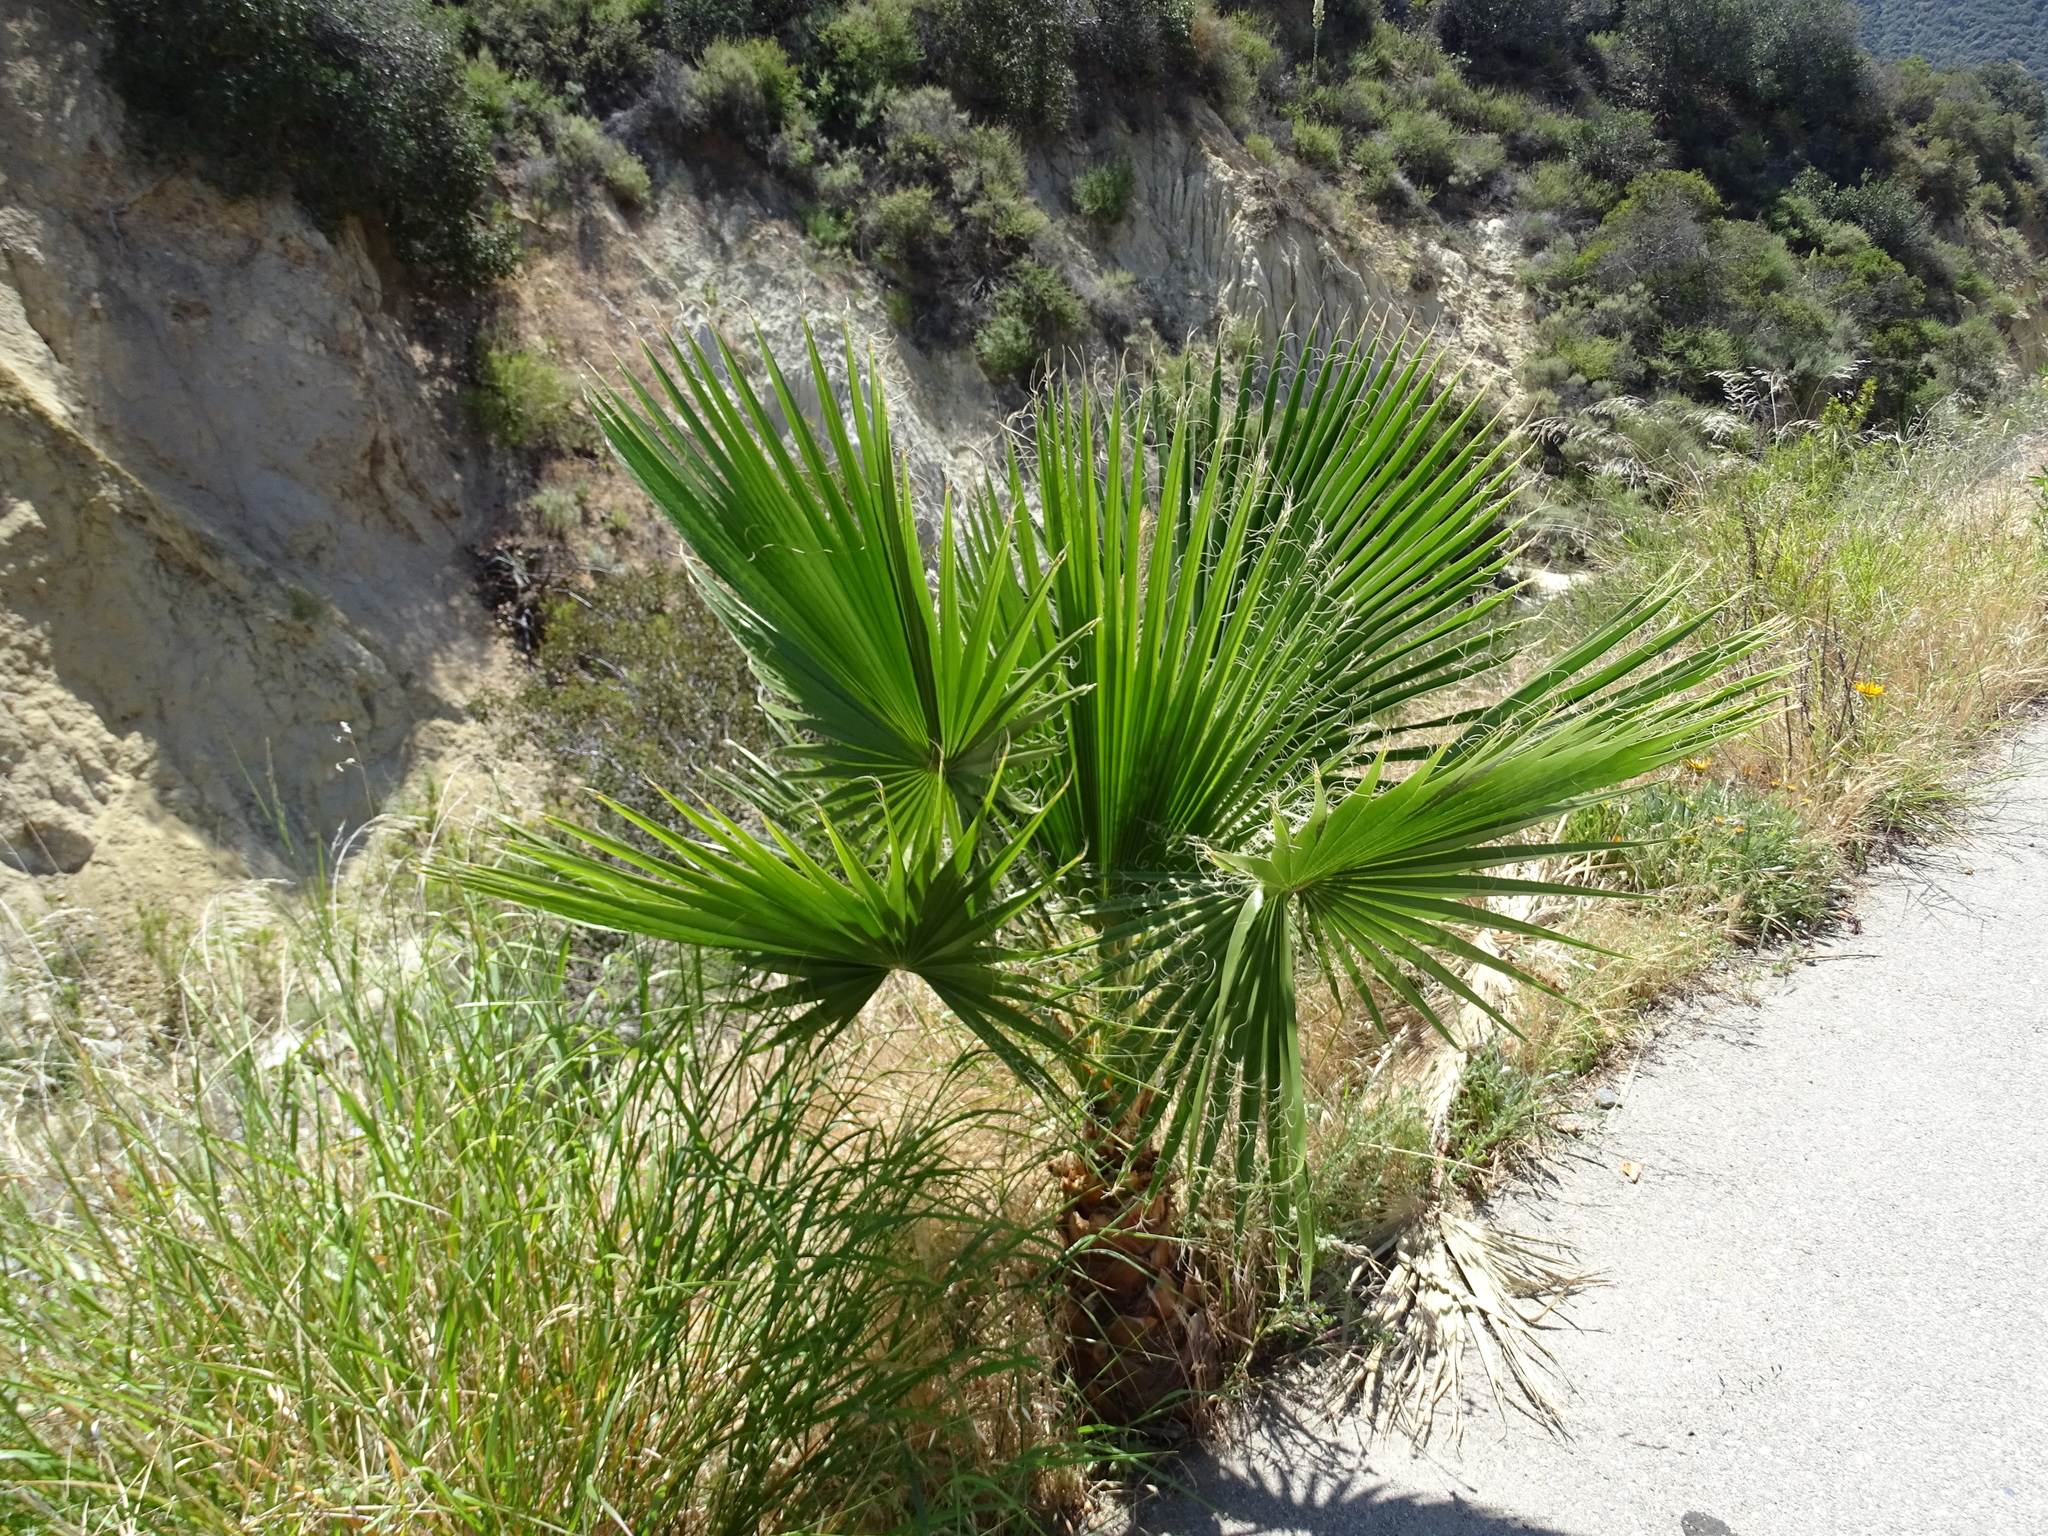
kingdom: Plantae
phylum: Tracheophyta
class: Liliopsida
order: Arecales
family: Arecaceae
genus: Washingtonia
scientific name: Washingtonia robusta
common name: Mexican fan palm
